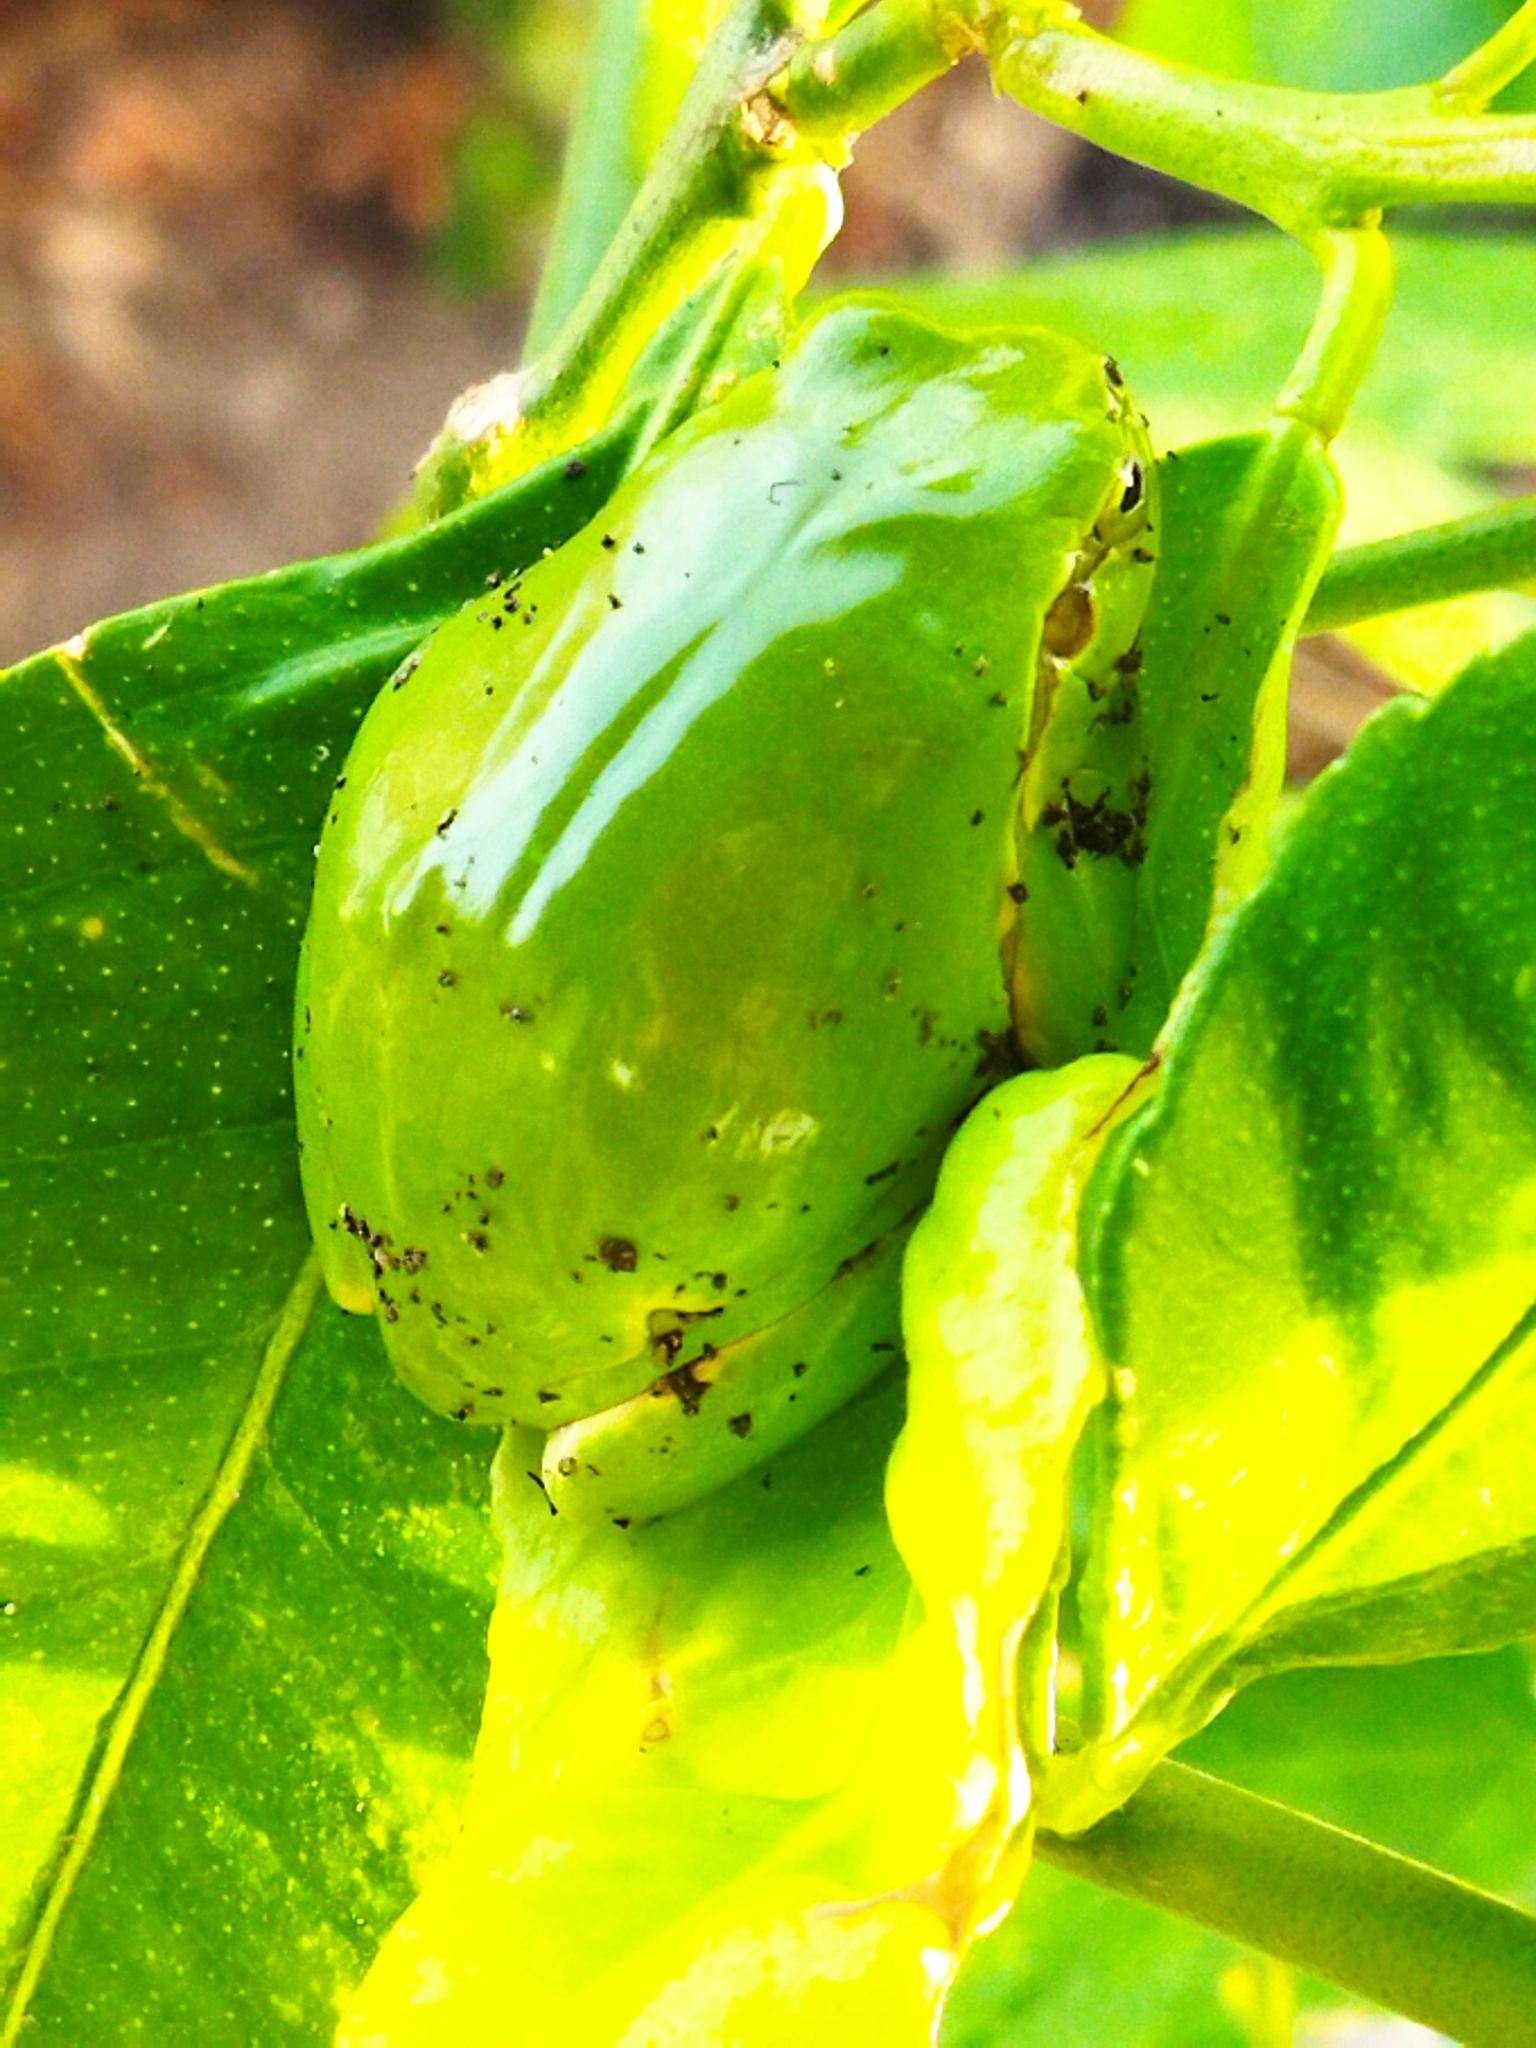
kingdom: Animalia
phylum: Chordata
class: Amphibia
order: Anura
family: Hylidae
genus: Hyla
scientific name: Hyla orientalis
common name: Caucasian treefrog
